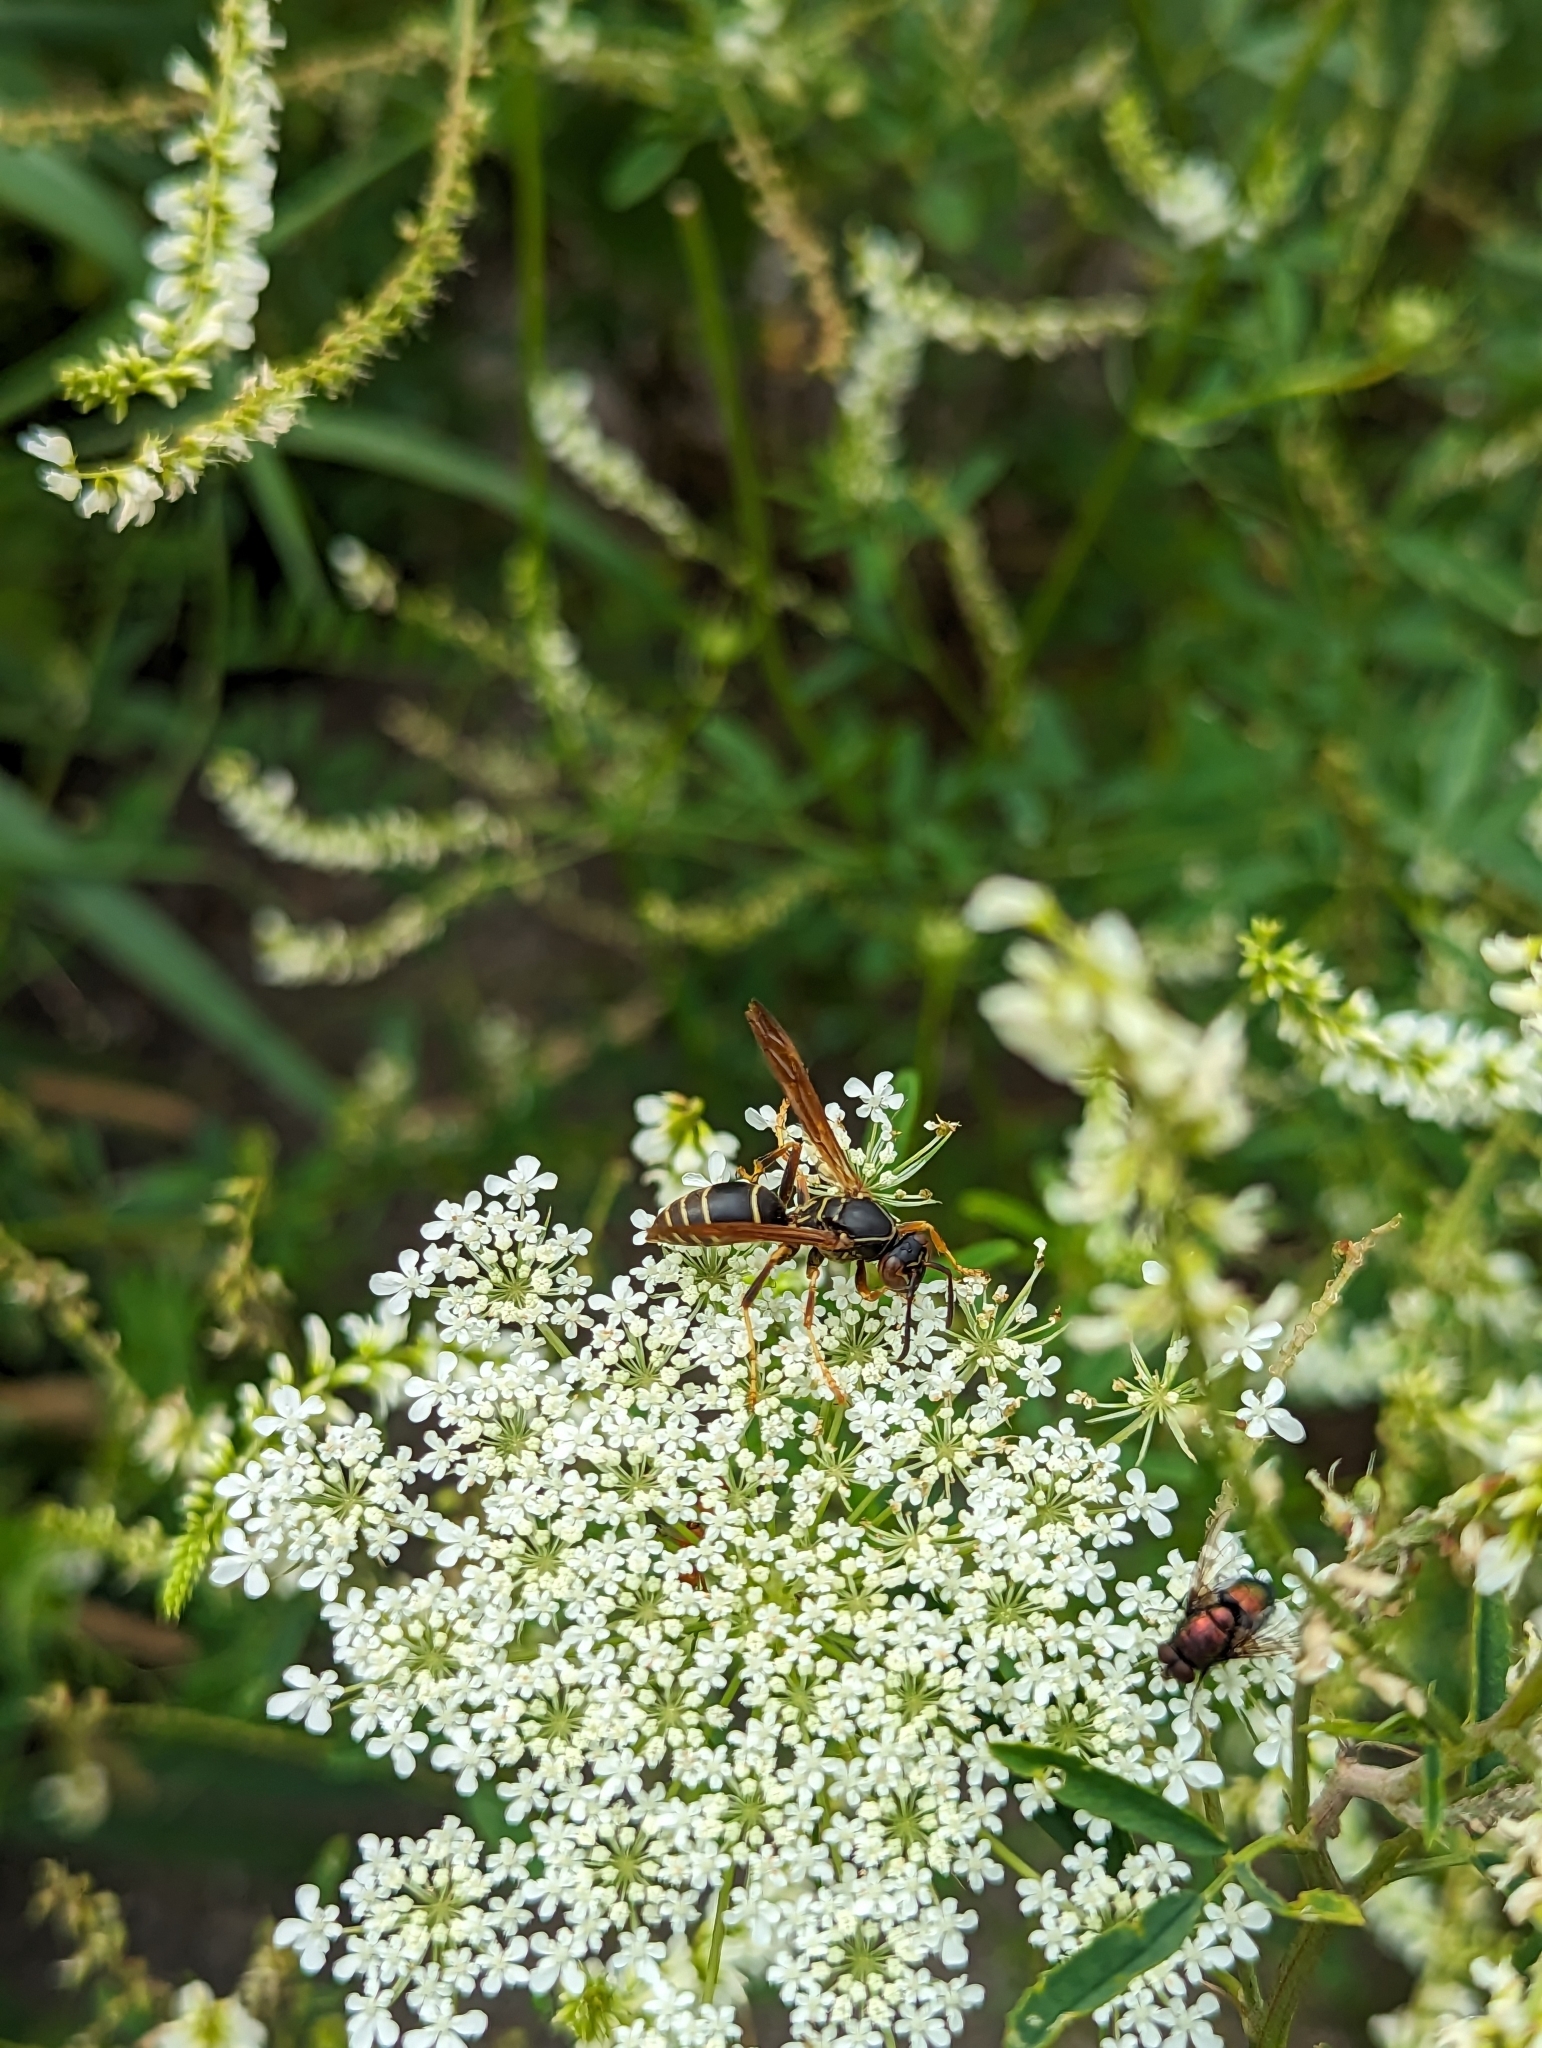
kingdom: Animalia
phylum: Arthropoda
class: Insecta
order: Hymenoptera
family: Eumenidae
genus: Polistes
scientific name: Polistes fuscatus
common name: Dark paper wasp
